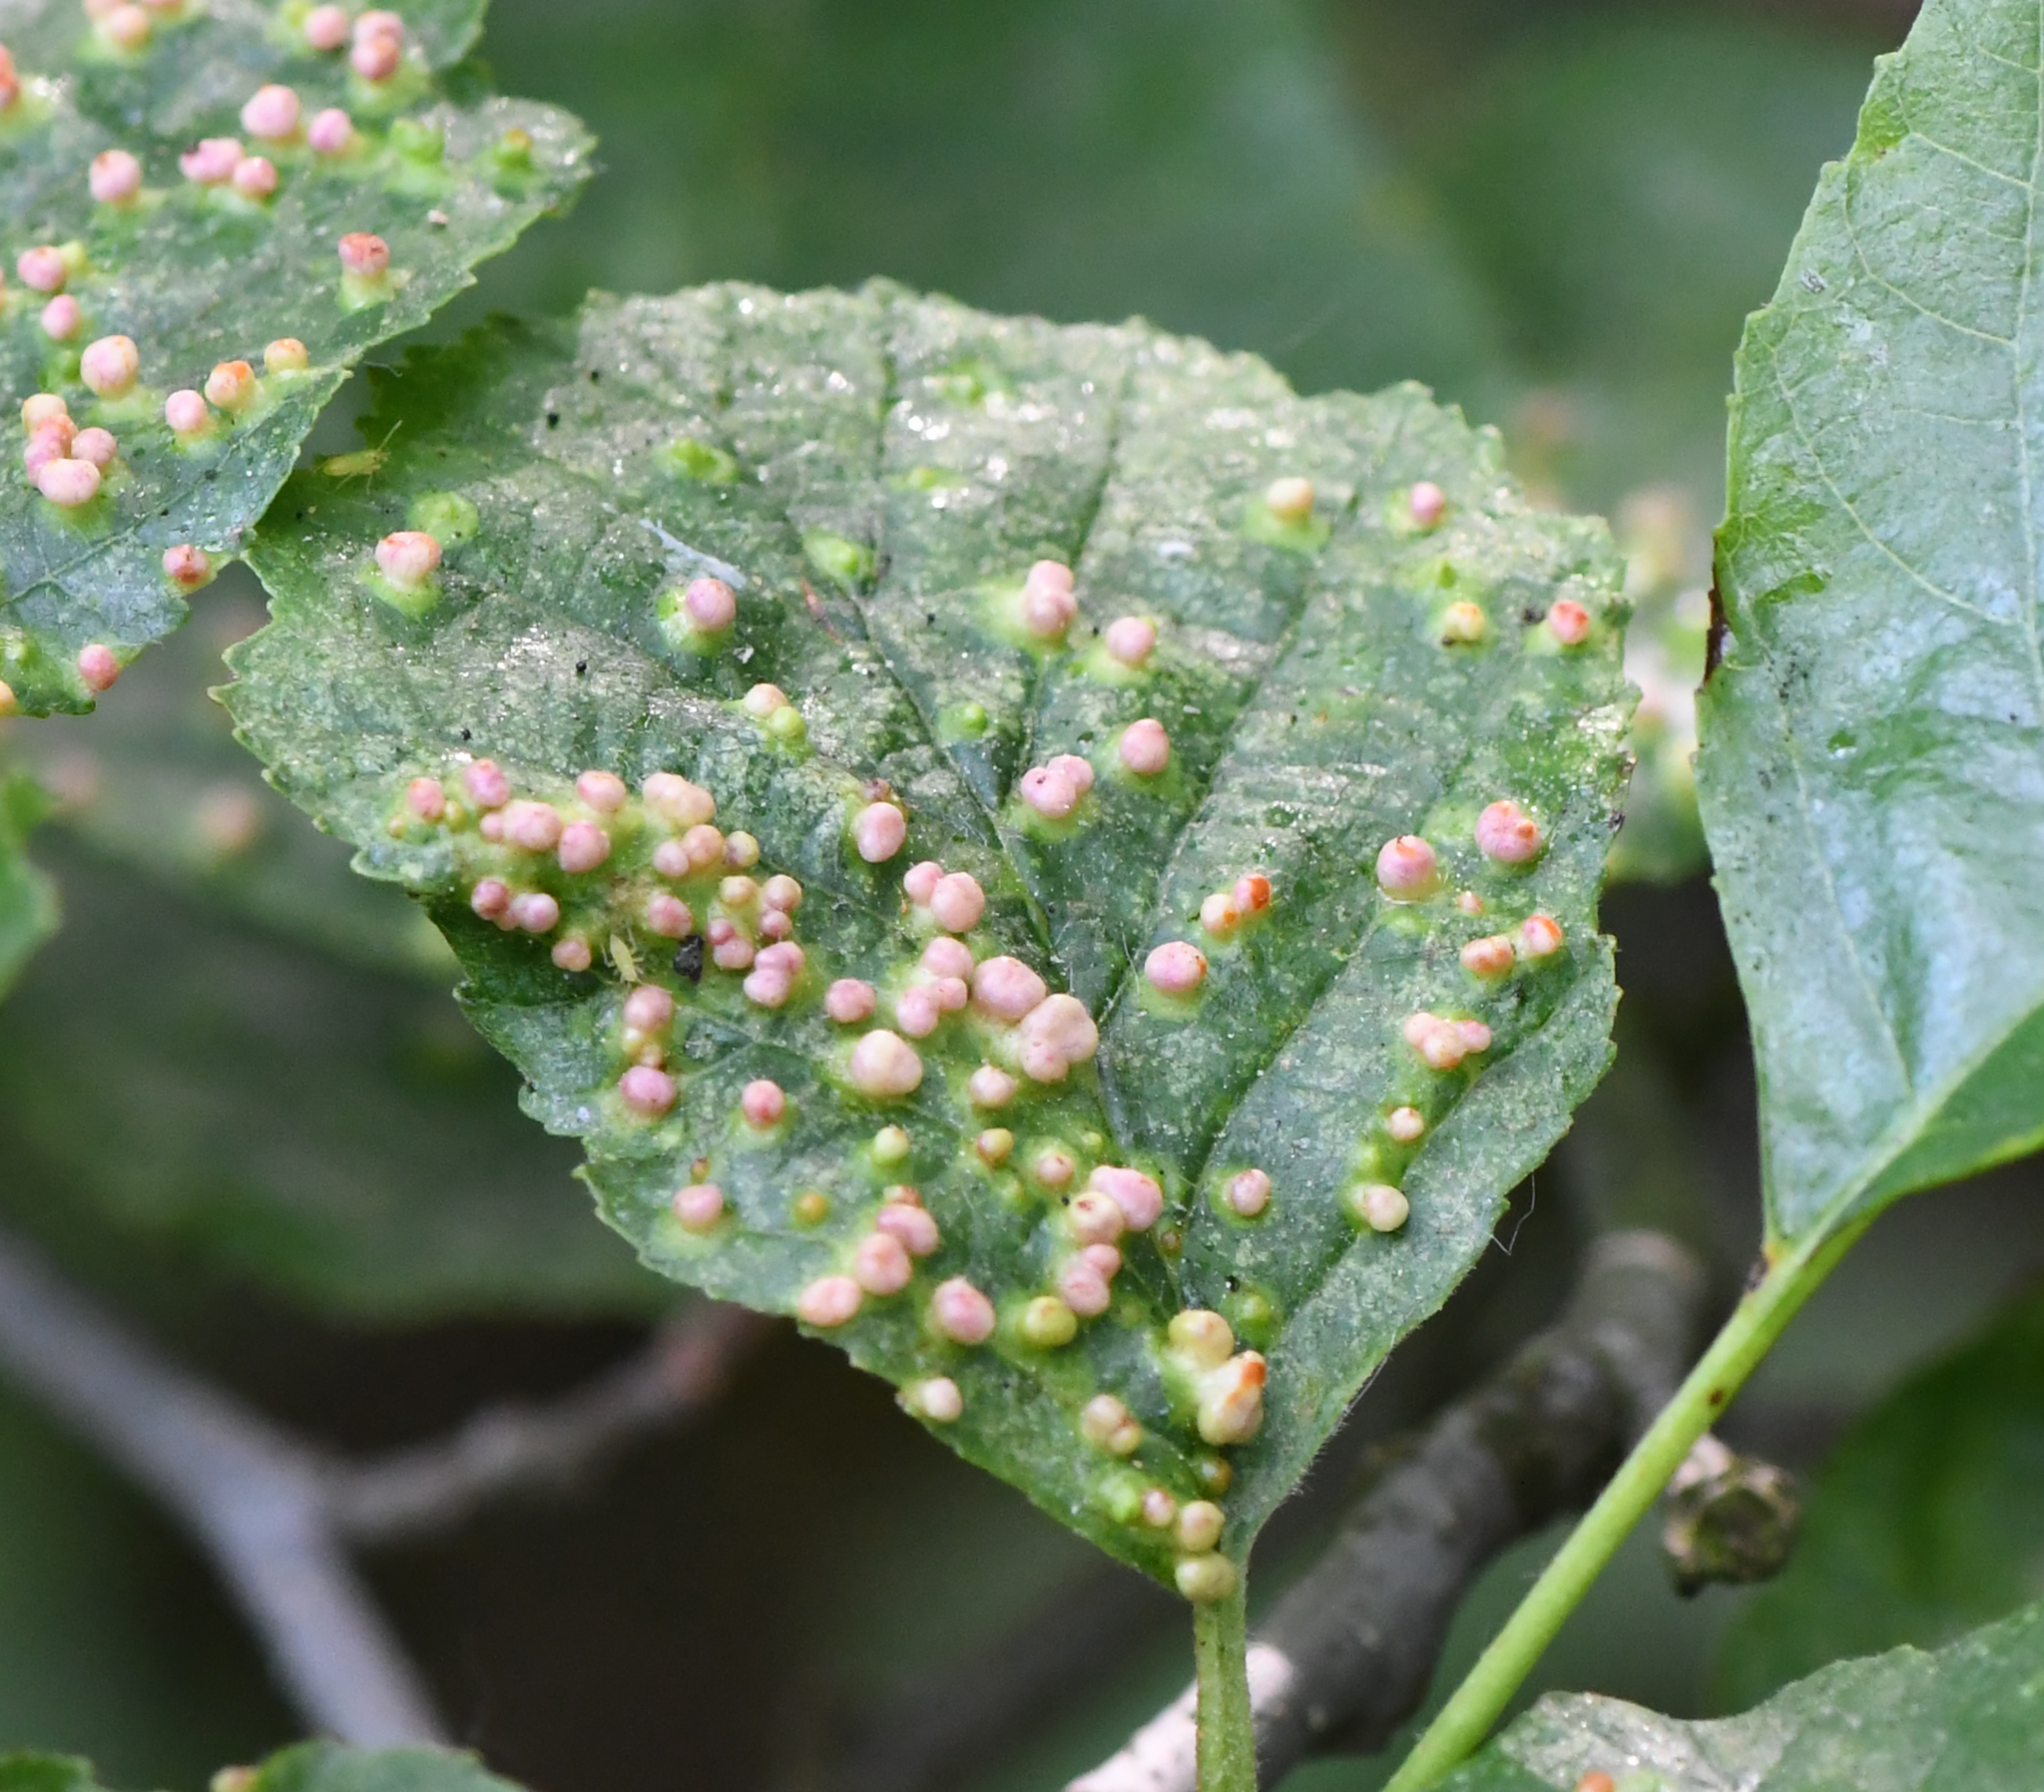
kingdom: Animalia
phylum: Arthropoda
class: Arachnida
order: Trombidiformes
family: Eriophyidae
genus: Eriophyes
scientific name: Eriophyes laevis
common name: Alder leaf gall mite
